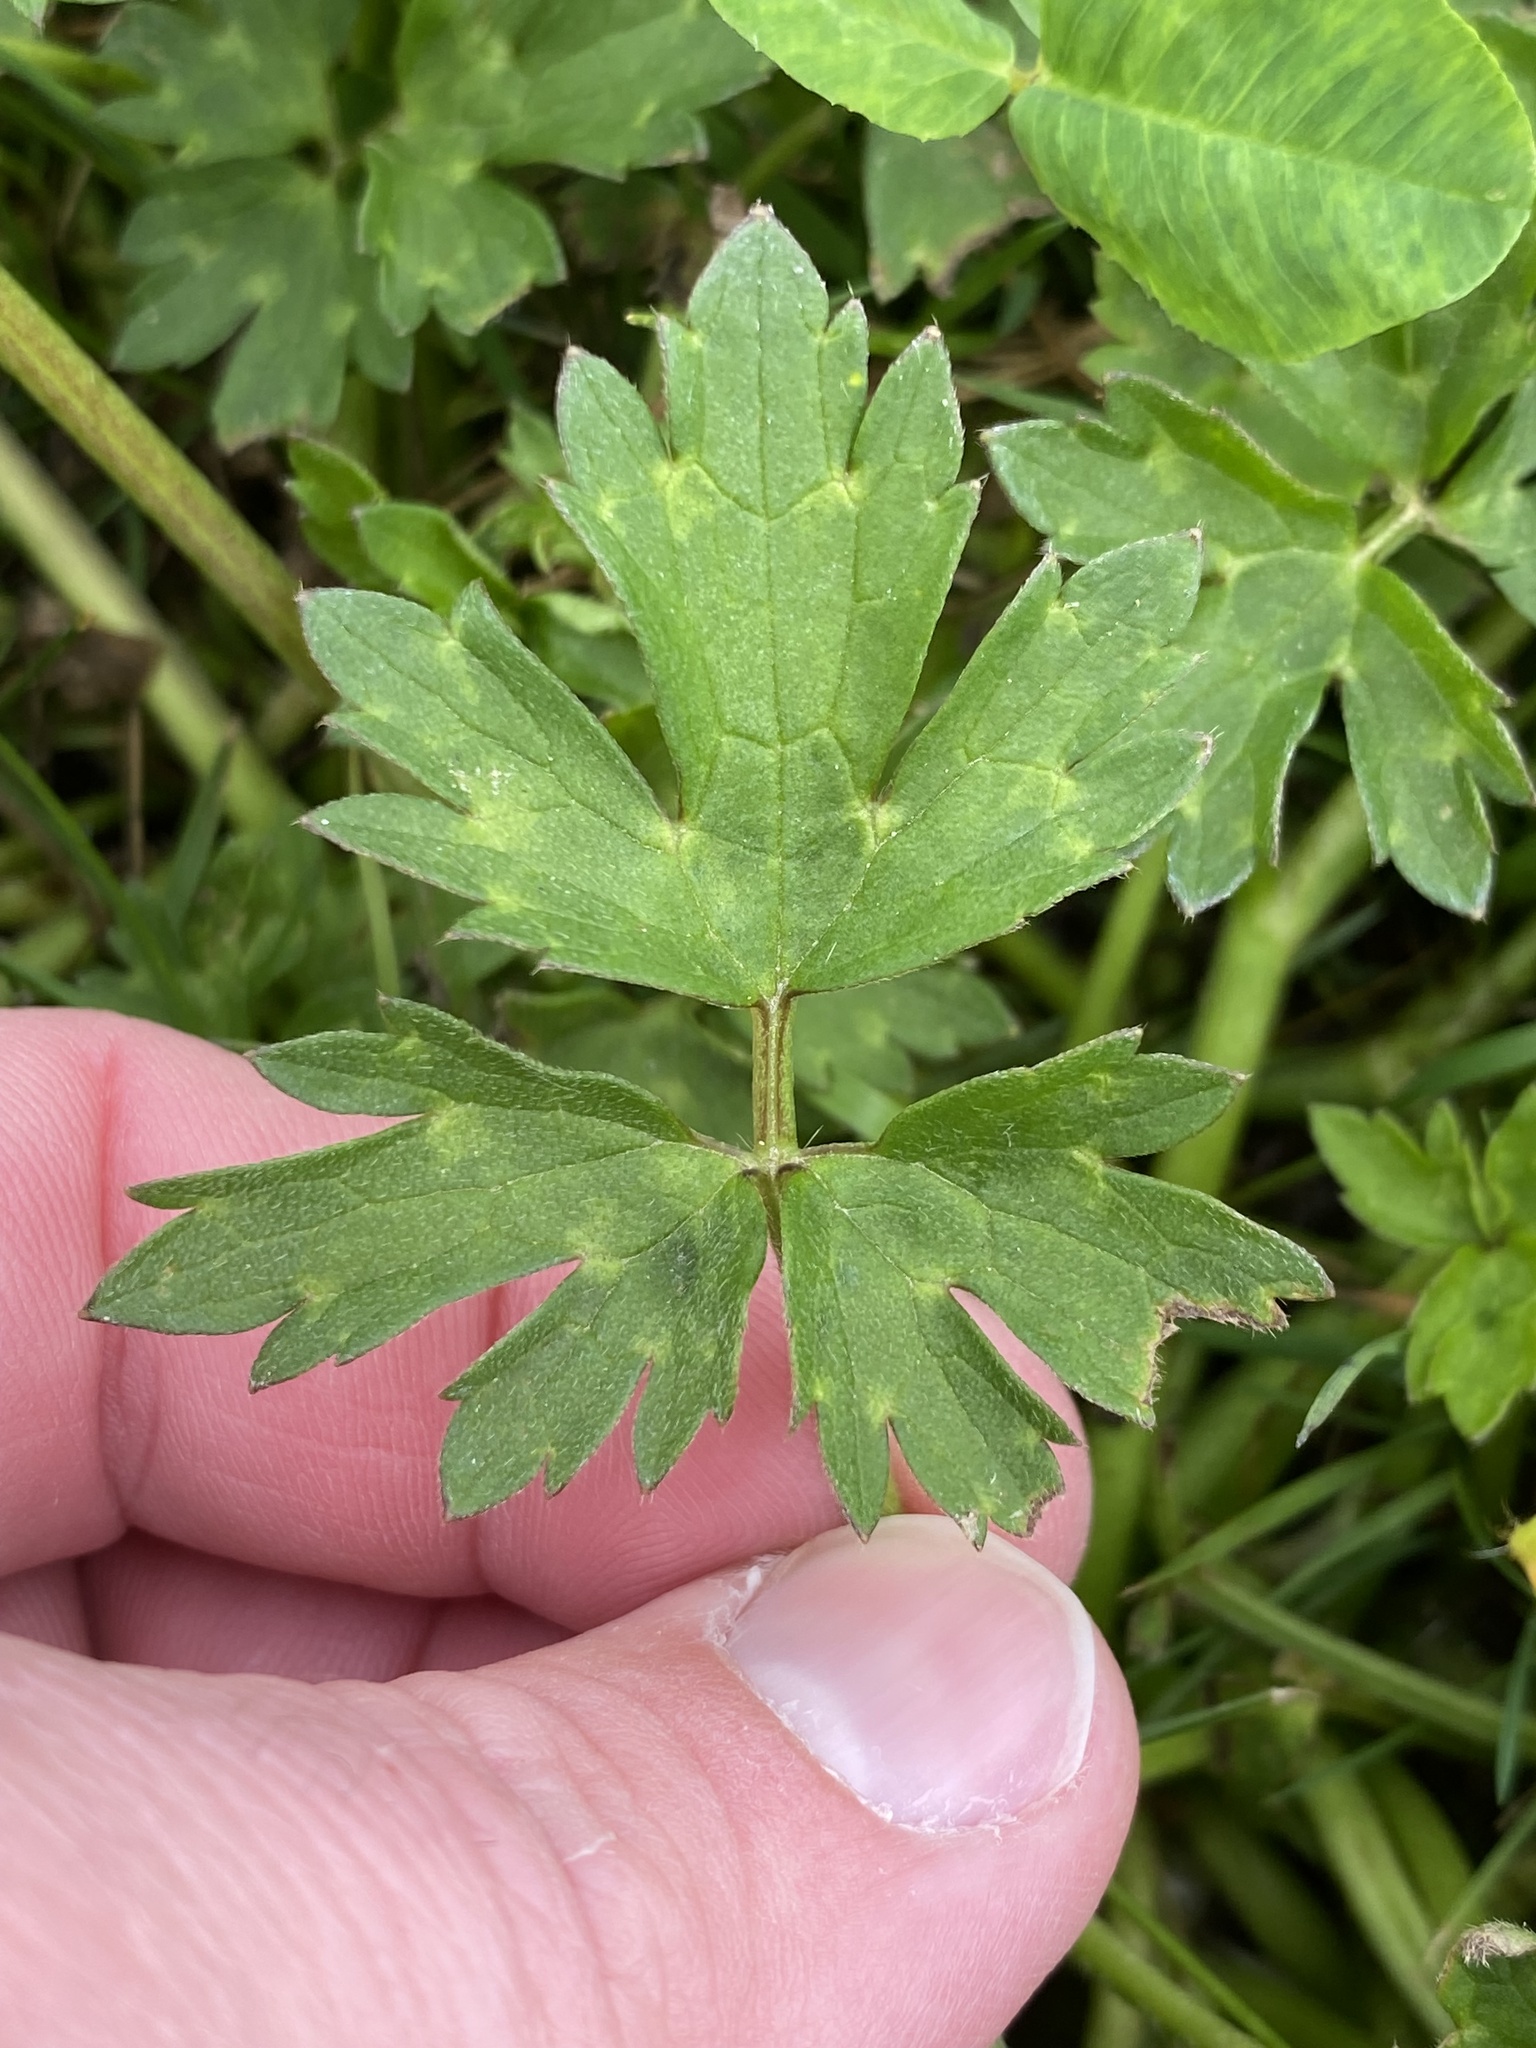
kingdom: Plantae
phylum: Tracheophyta
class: Magnoliopsida
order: Ranunculales
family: Ranunculaceae
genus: Ranunculus
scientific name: Ranunculus repens
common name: Creeping buttercup
